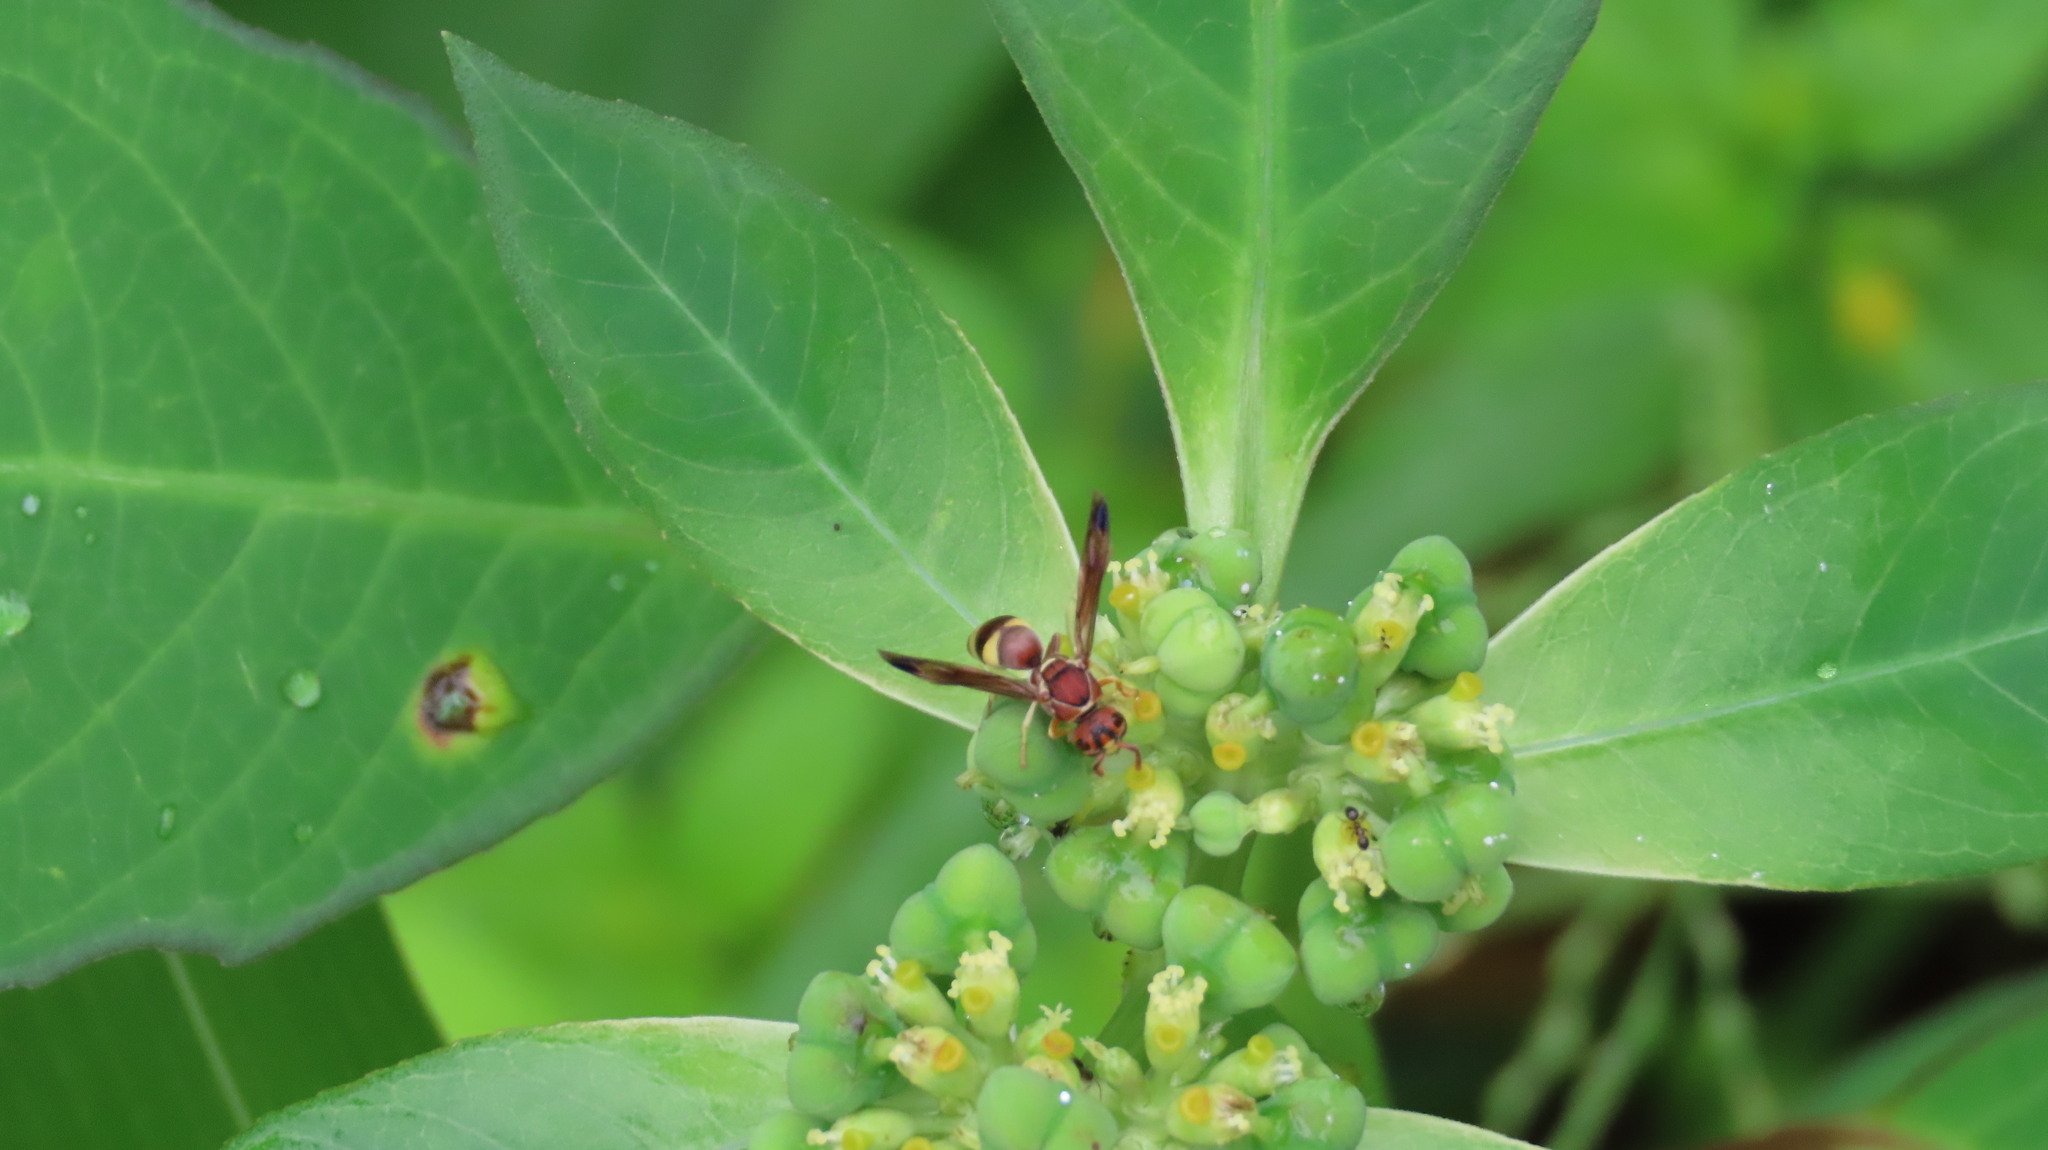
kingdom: Animalia
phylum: Arthropoda
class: Insecta
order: Hymenoptera
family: Eumenidae
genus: Antodynerus
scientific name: Antodynerus punctatipennis
